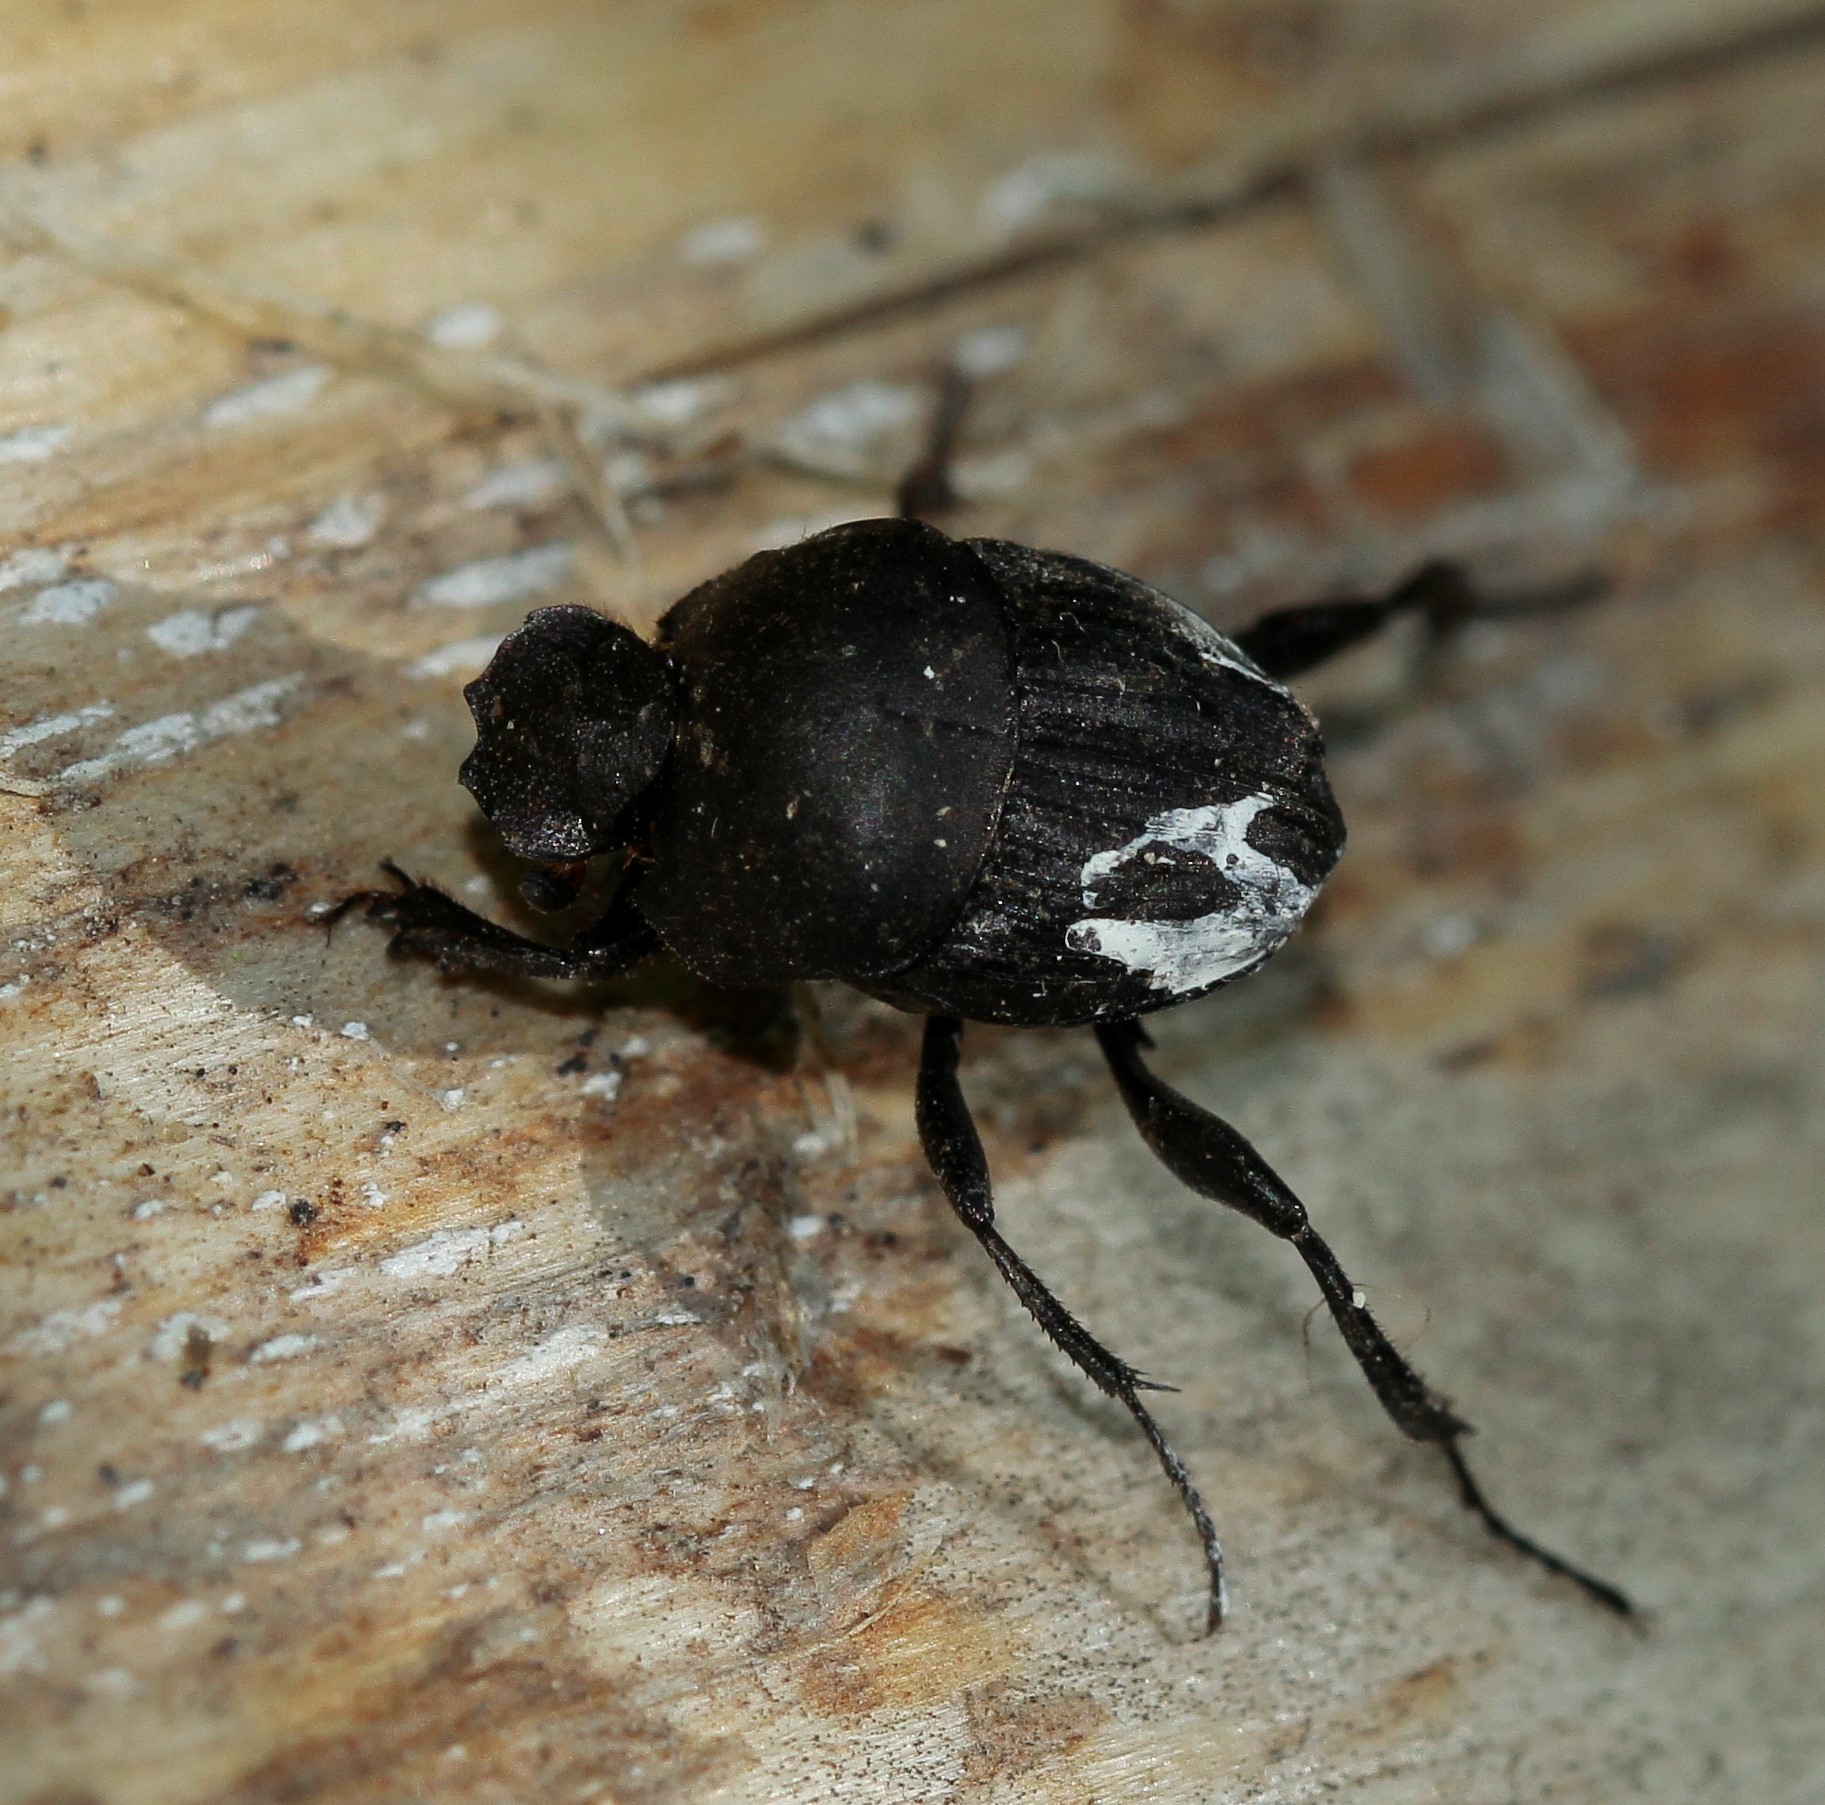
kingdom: Animalia
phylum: Arthropoda
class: Insecta
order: Coleoptera
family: Scarabaeidae
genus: Sisyphus
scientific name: Sisyphus schaefferi
